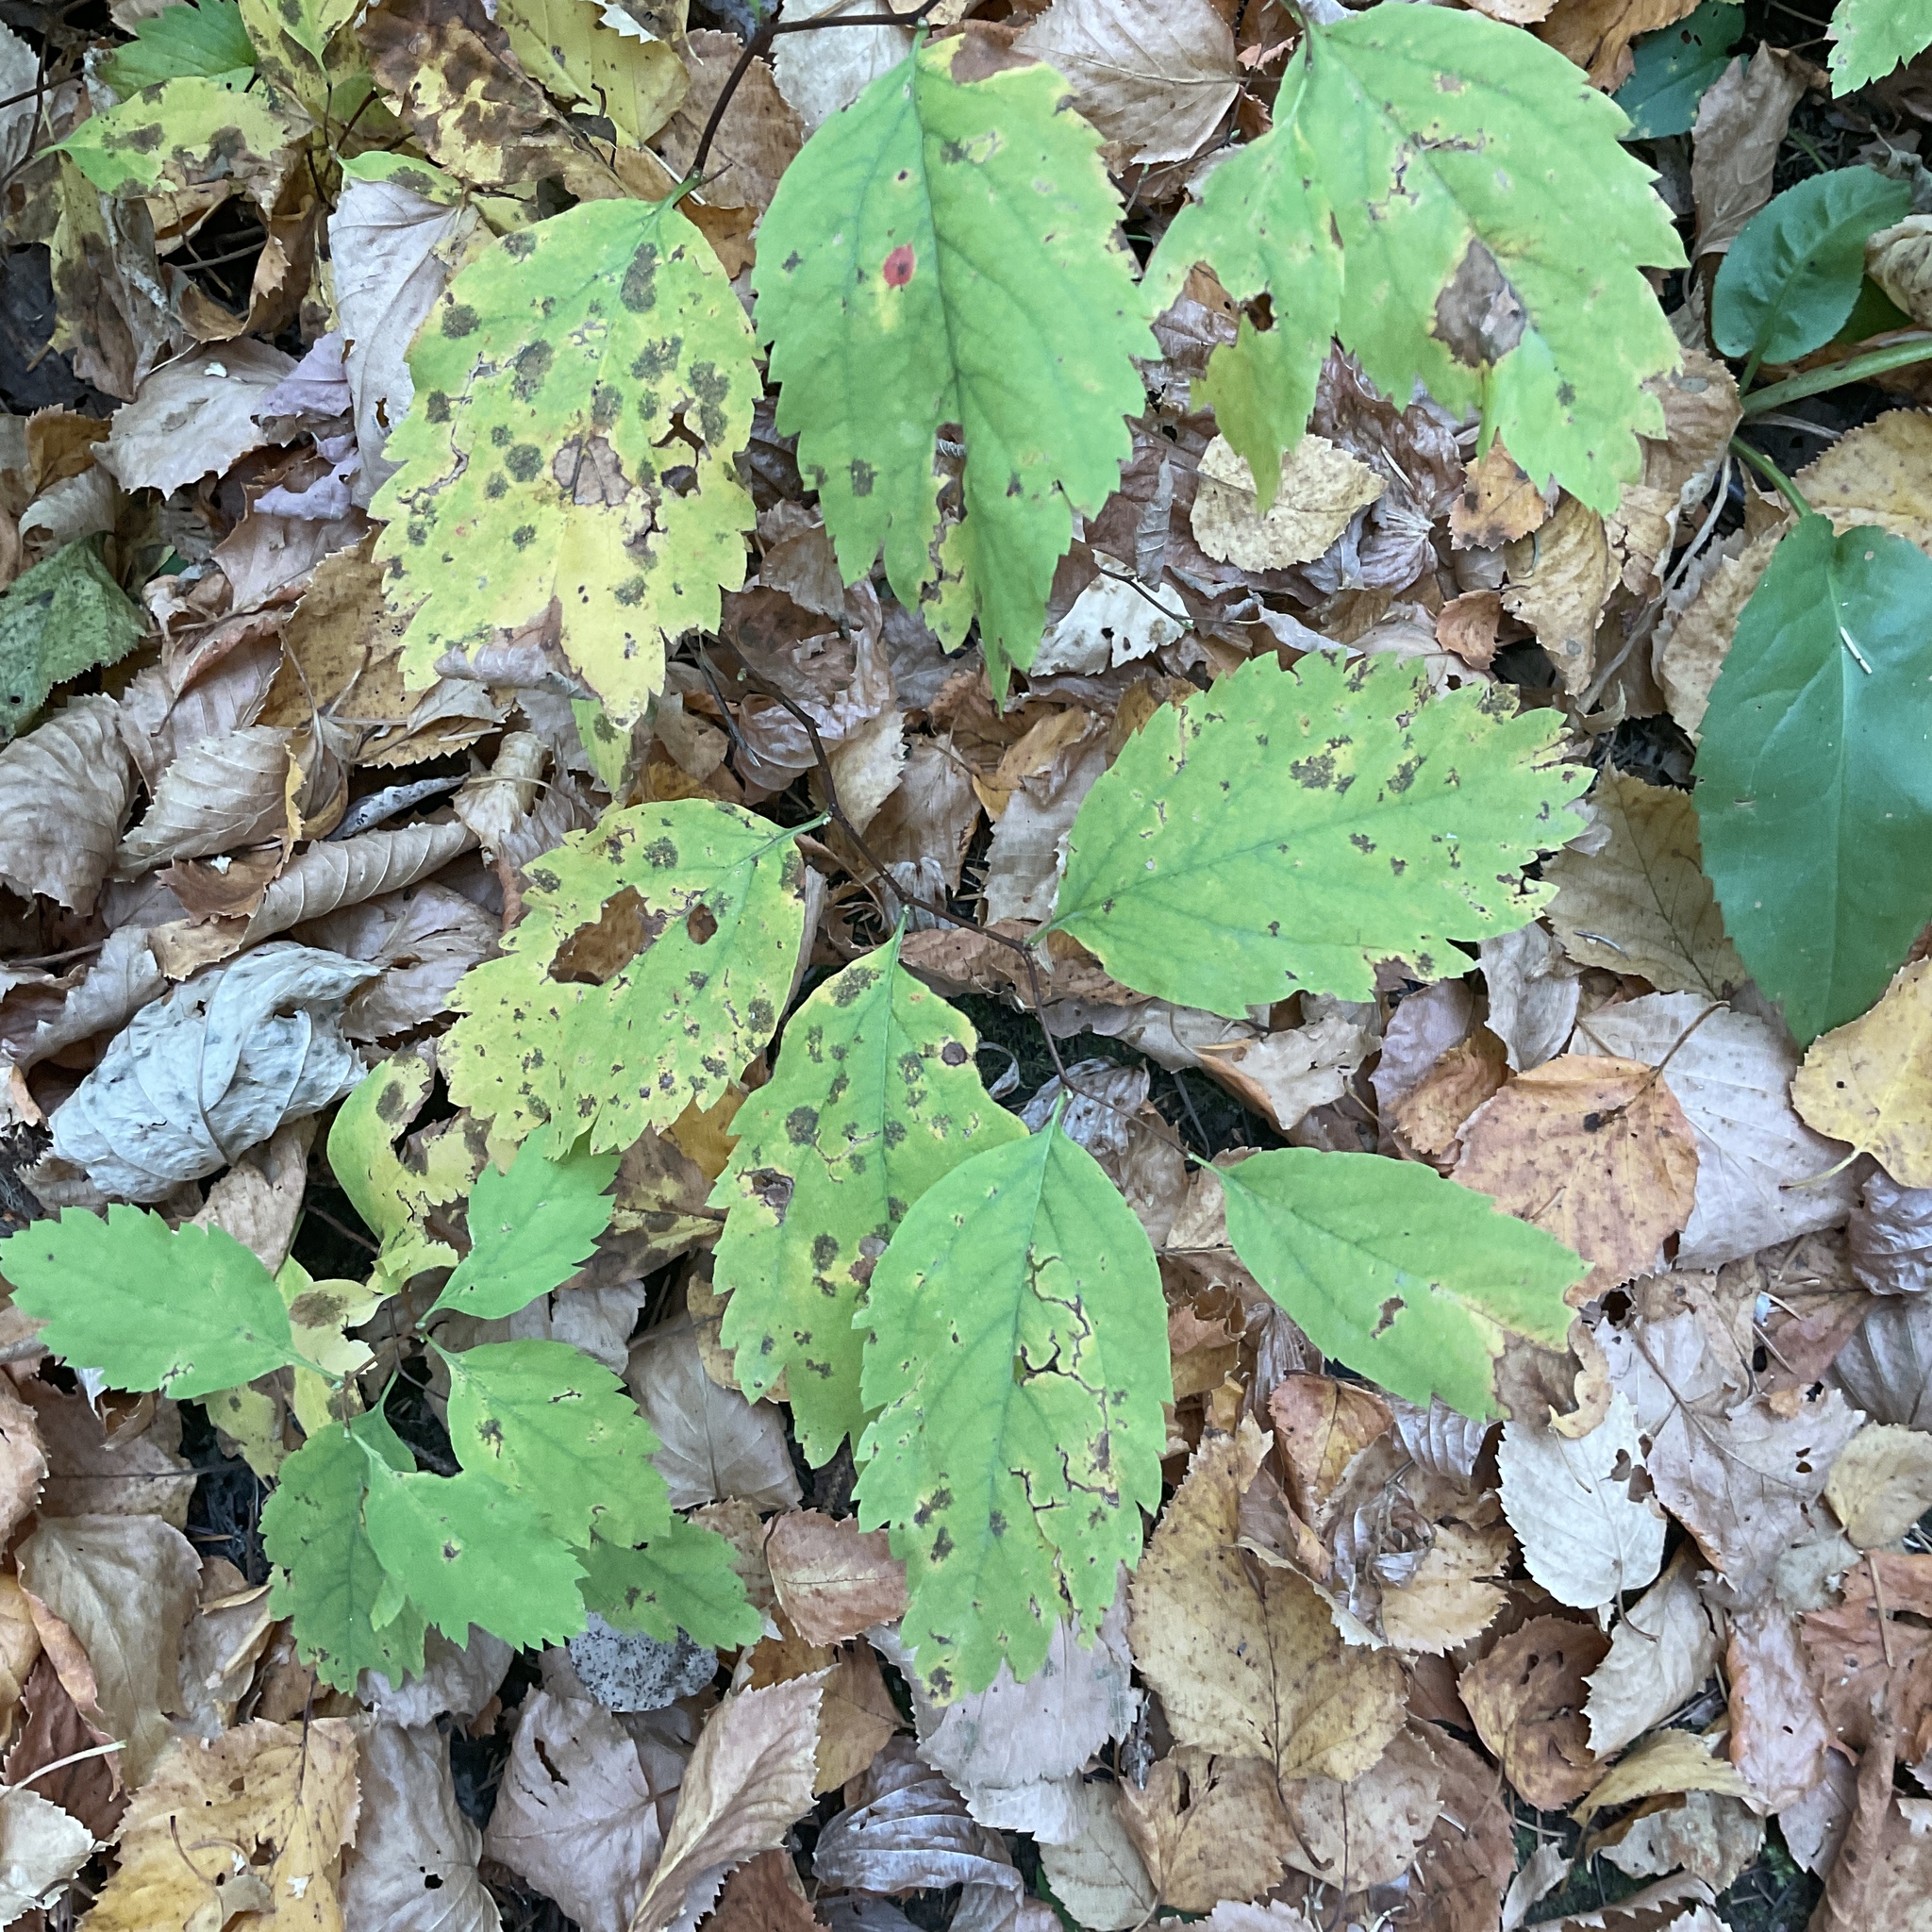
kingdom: Plantae
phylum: Tracheophyta
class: Magnoliopsida
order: Rosales
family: Rosaceae
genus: Spiraea
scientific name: Spiraea lucida
